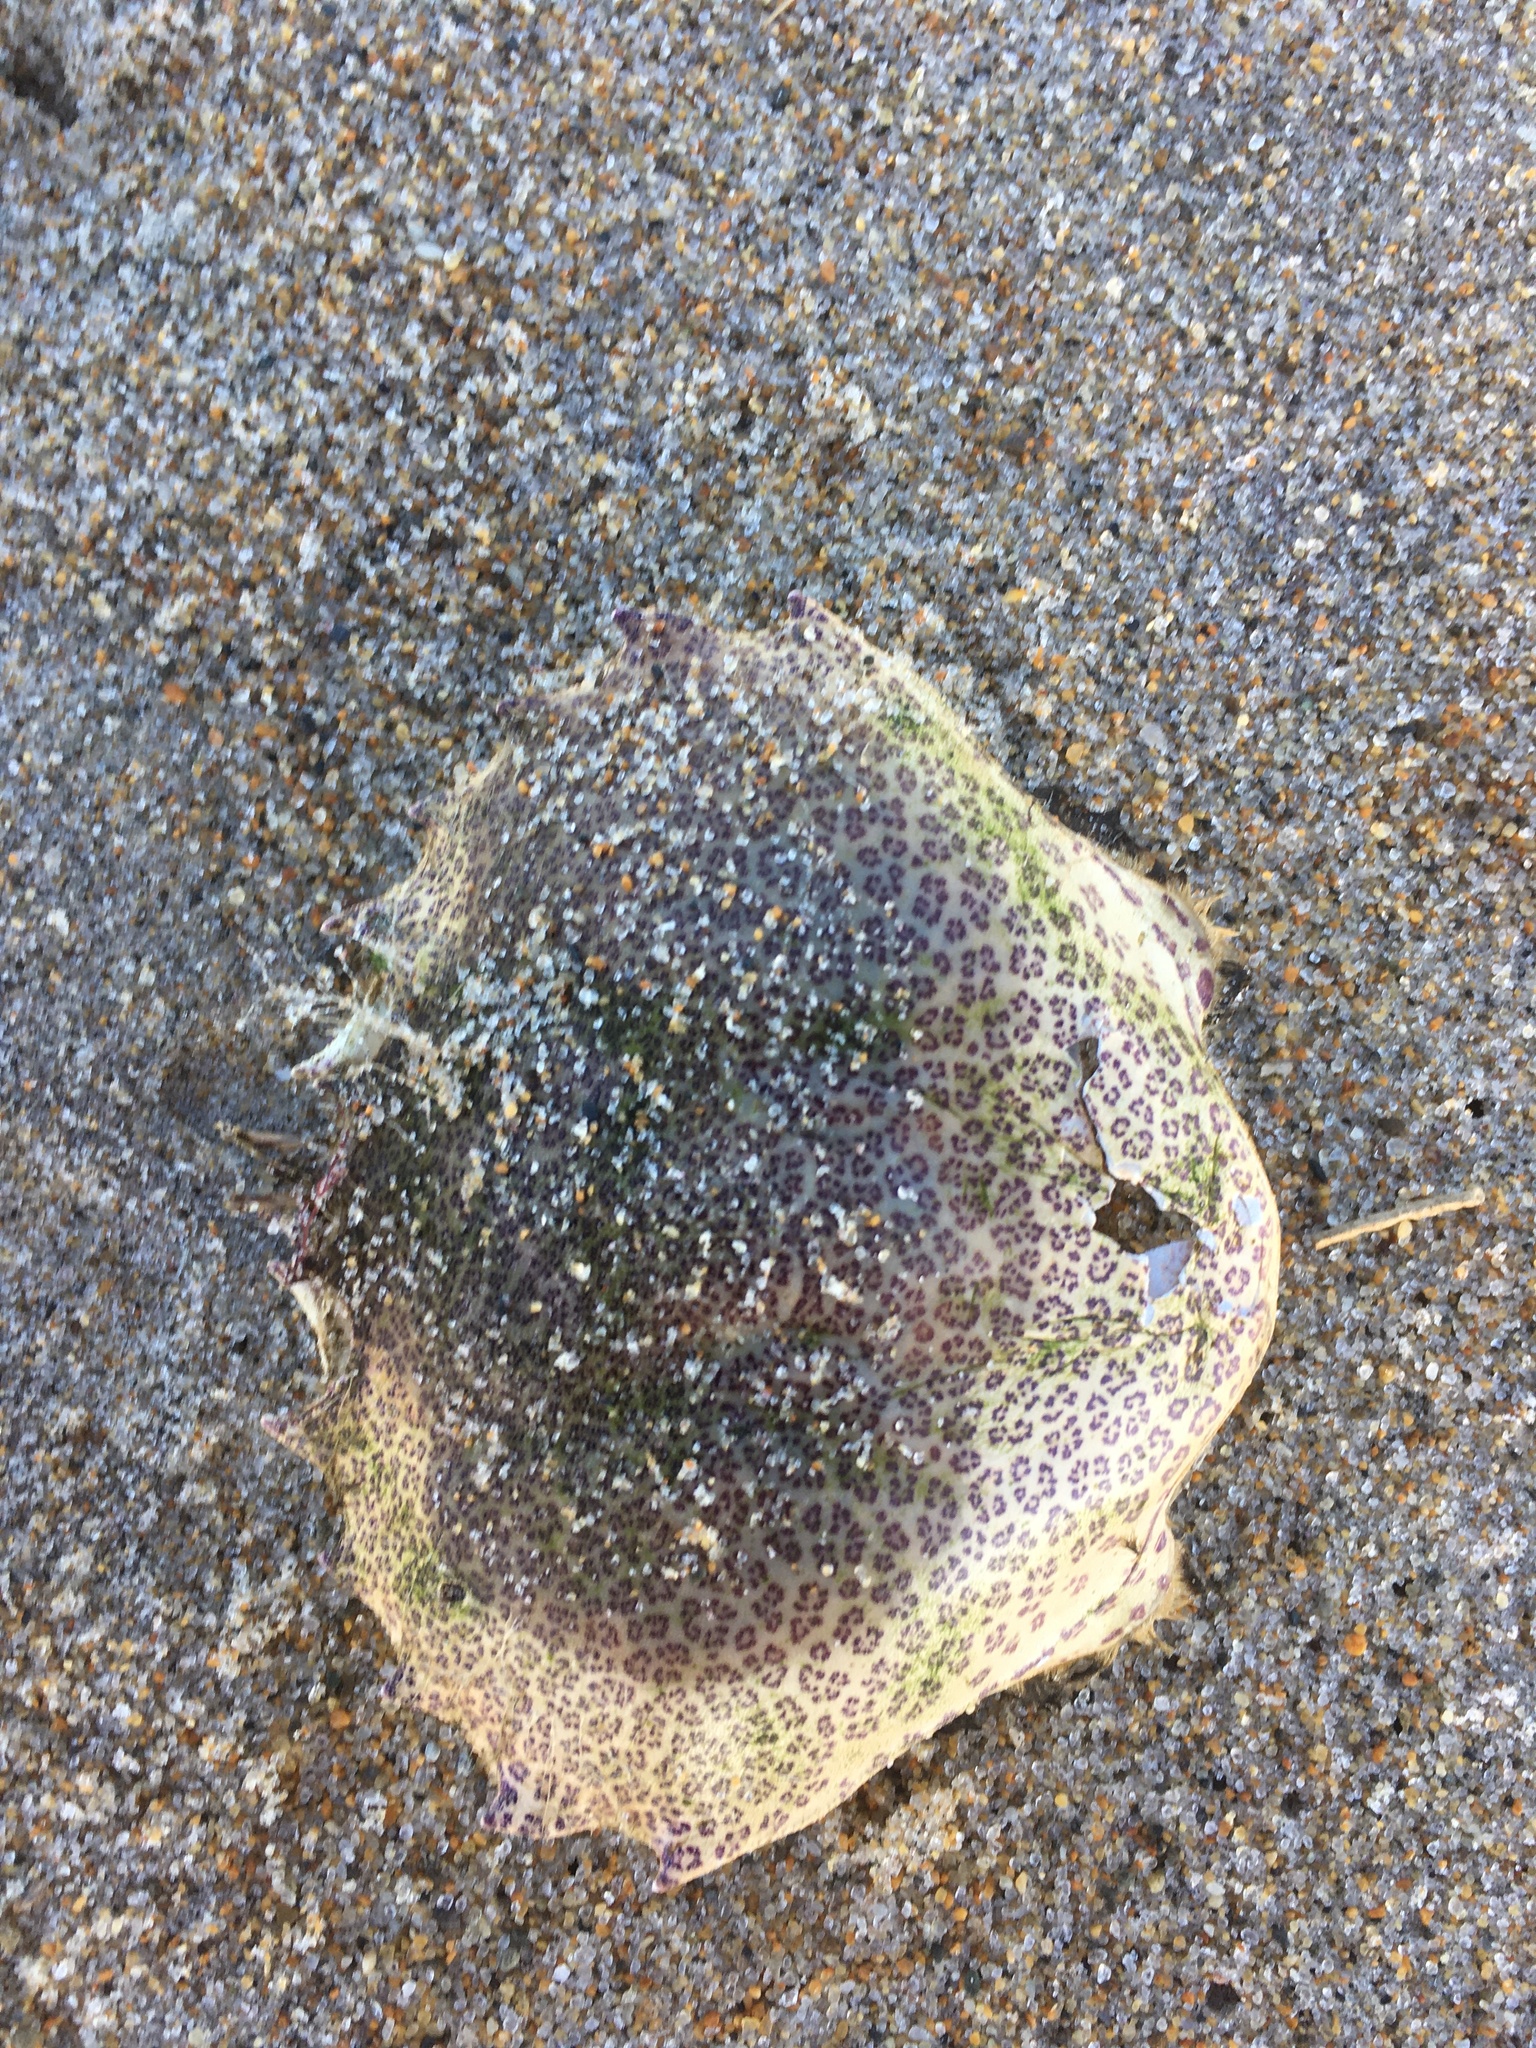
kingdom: Animalia
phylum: Arthropoda
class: Malacostraca
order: Decapoda
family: Ovalipidae
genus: Ovalipes
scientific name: Ovalipes ocellatus
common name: Lady crab
